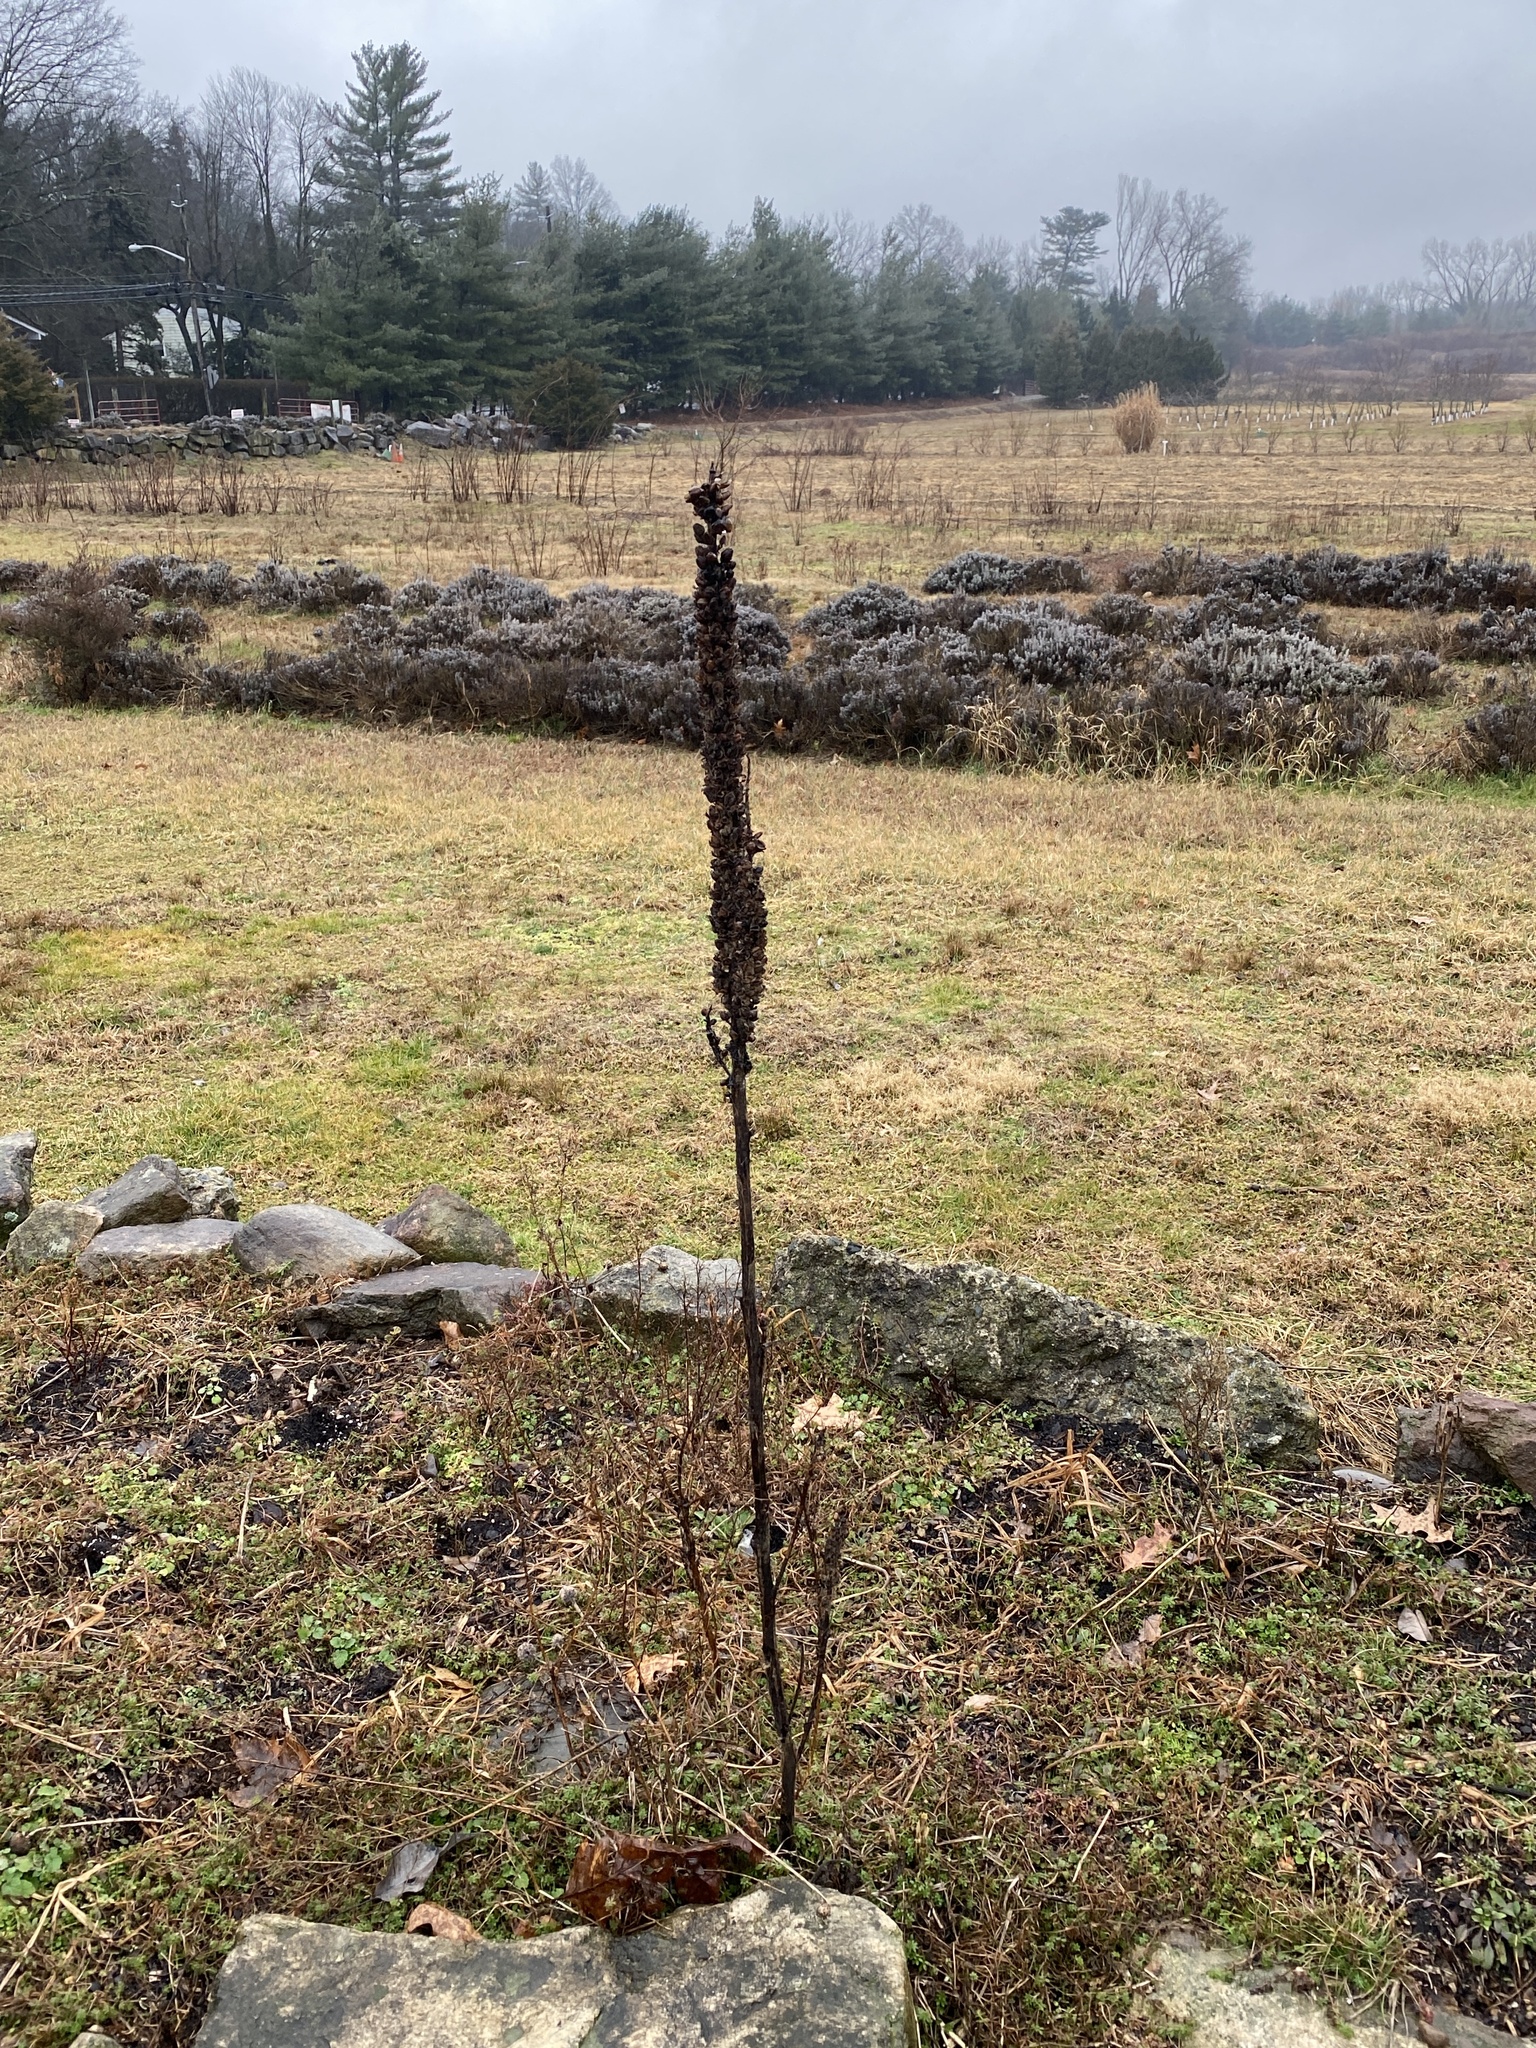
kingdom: Plantae
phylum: Tracheophyta
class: Magnoliopsida
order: Lamiales
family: Scrophulariaceae
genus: Verbascum
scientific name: Verbascum thapsus
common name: Common mullein
